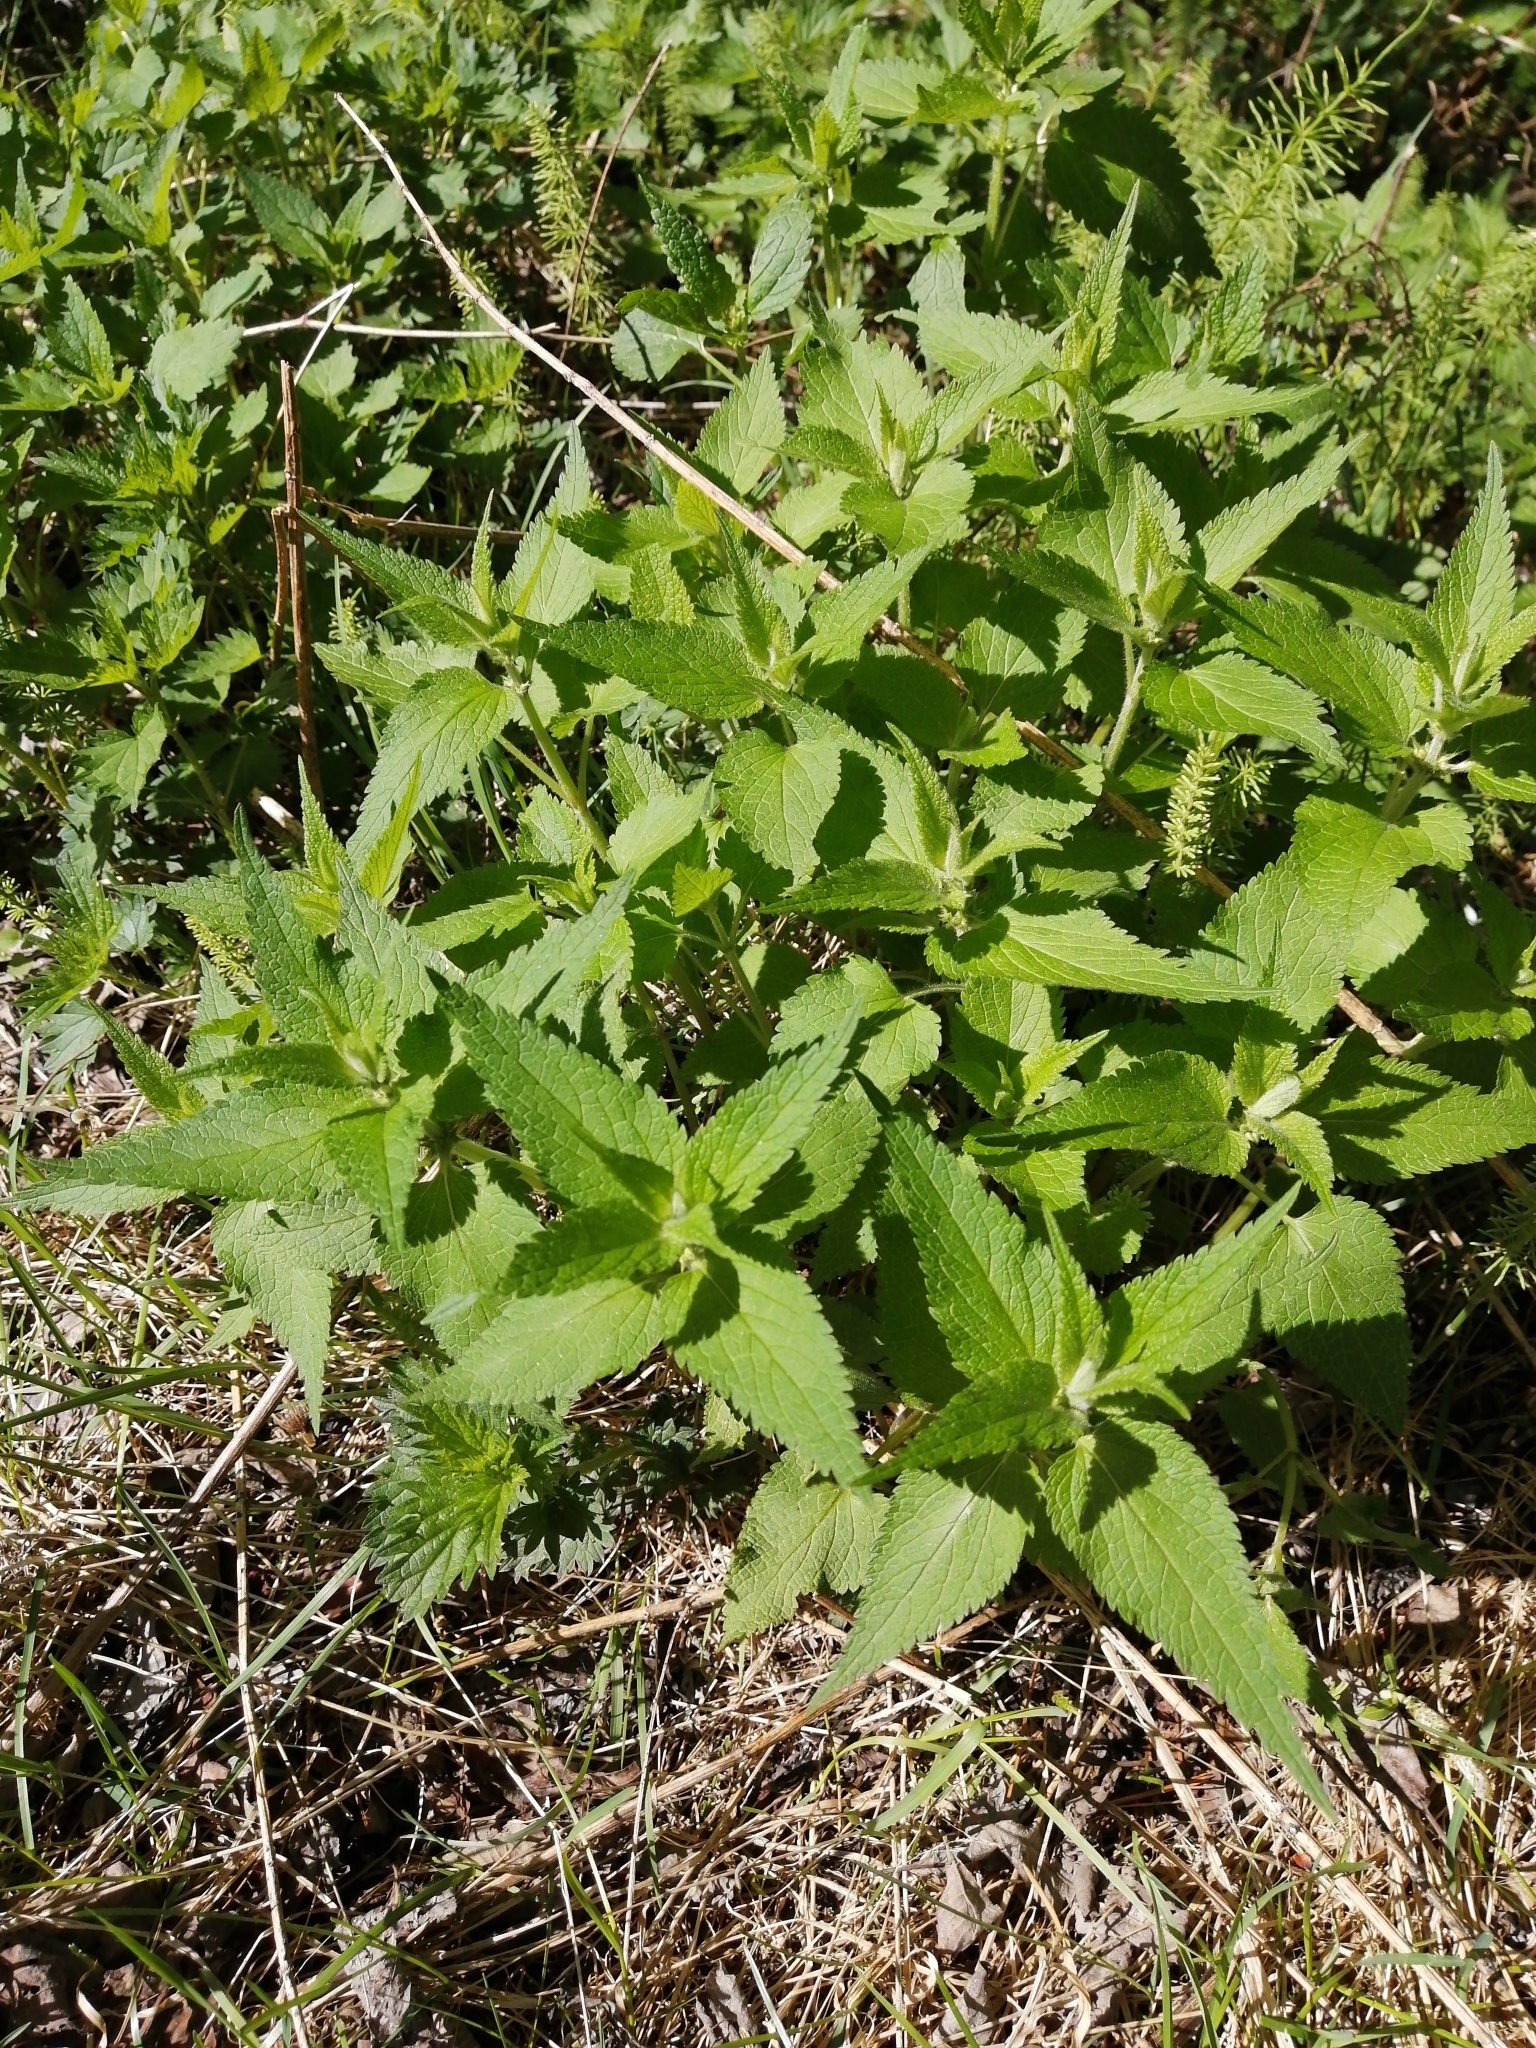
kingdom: Plantae
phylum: Tracheophyta
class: Magnoliopsida
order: Lamiales
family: Lamiaceae
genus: Lamium
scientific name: Lamium album
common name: White dead-nettle
